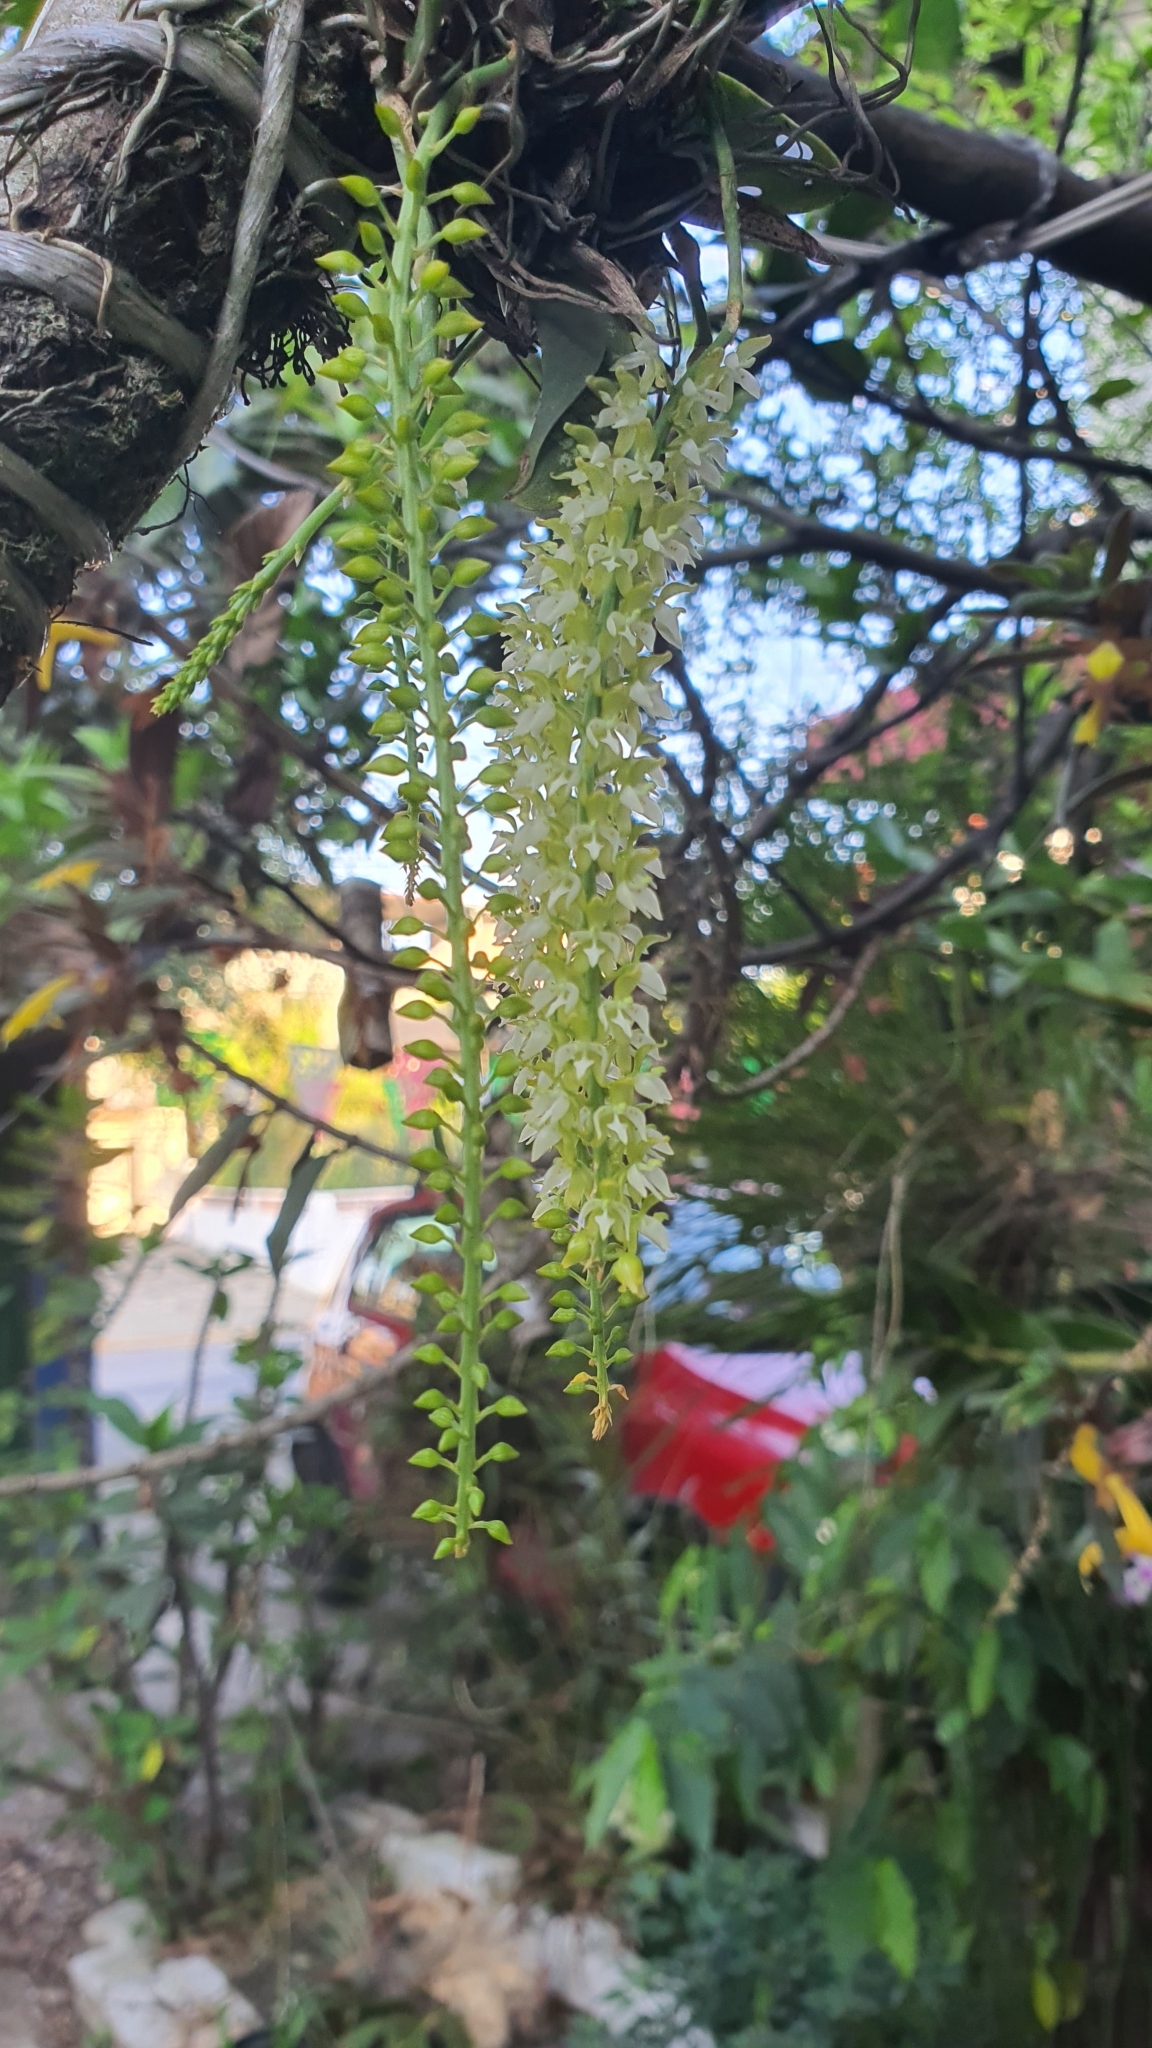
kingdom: Plantae
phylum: Tracheophyta
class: Liliopsida
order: Asparagales
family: Orchidaceae
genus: Notylia
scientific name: Notylia barkeri
